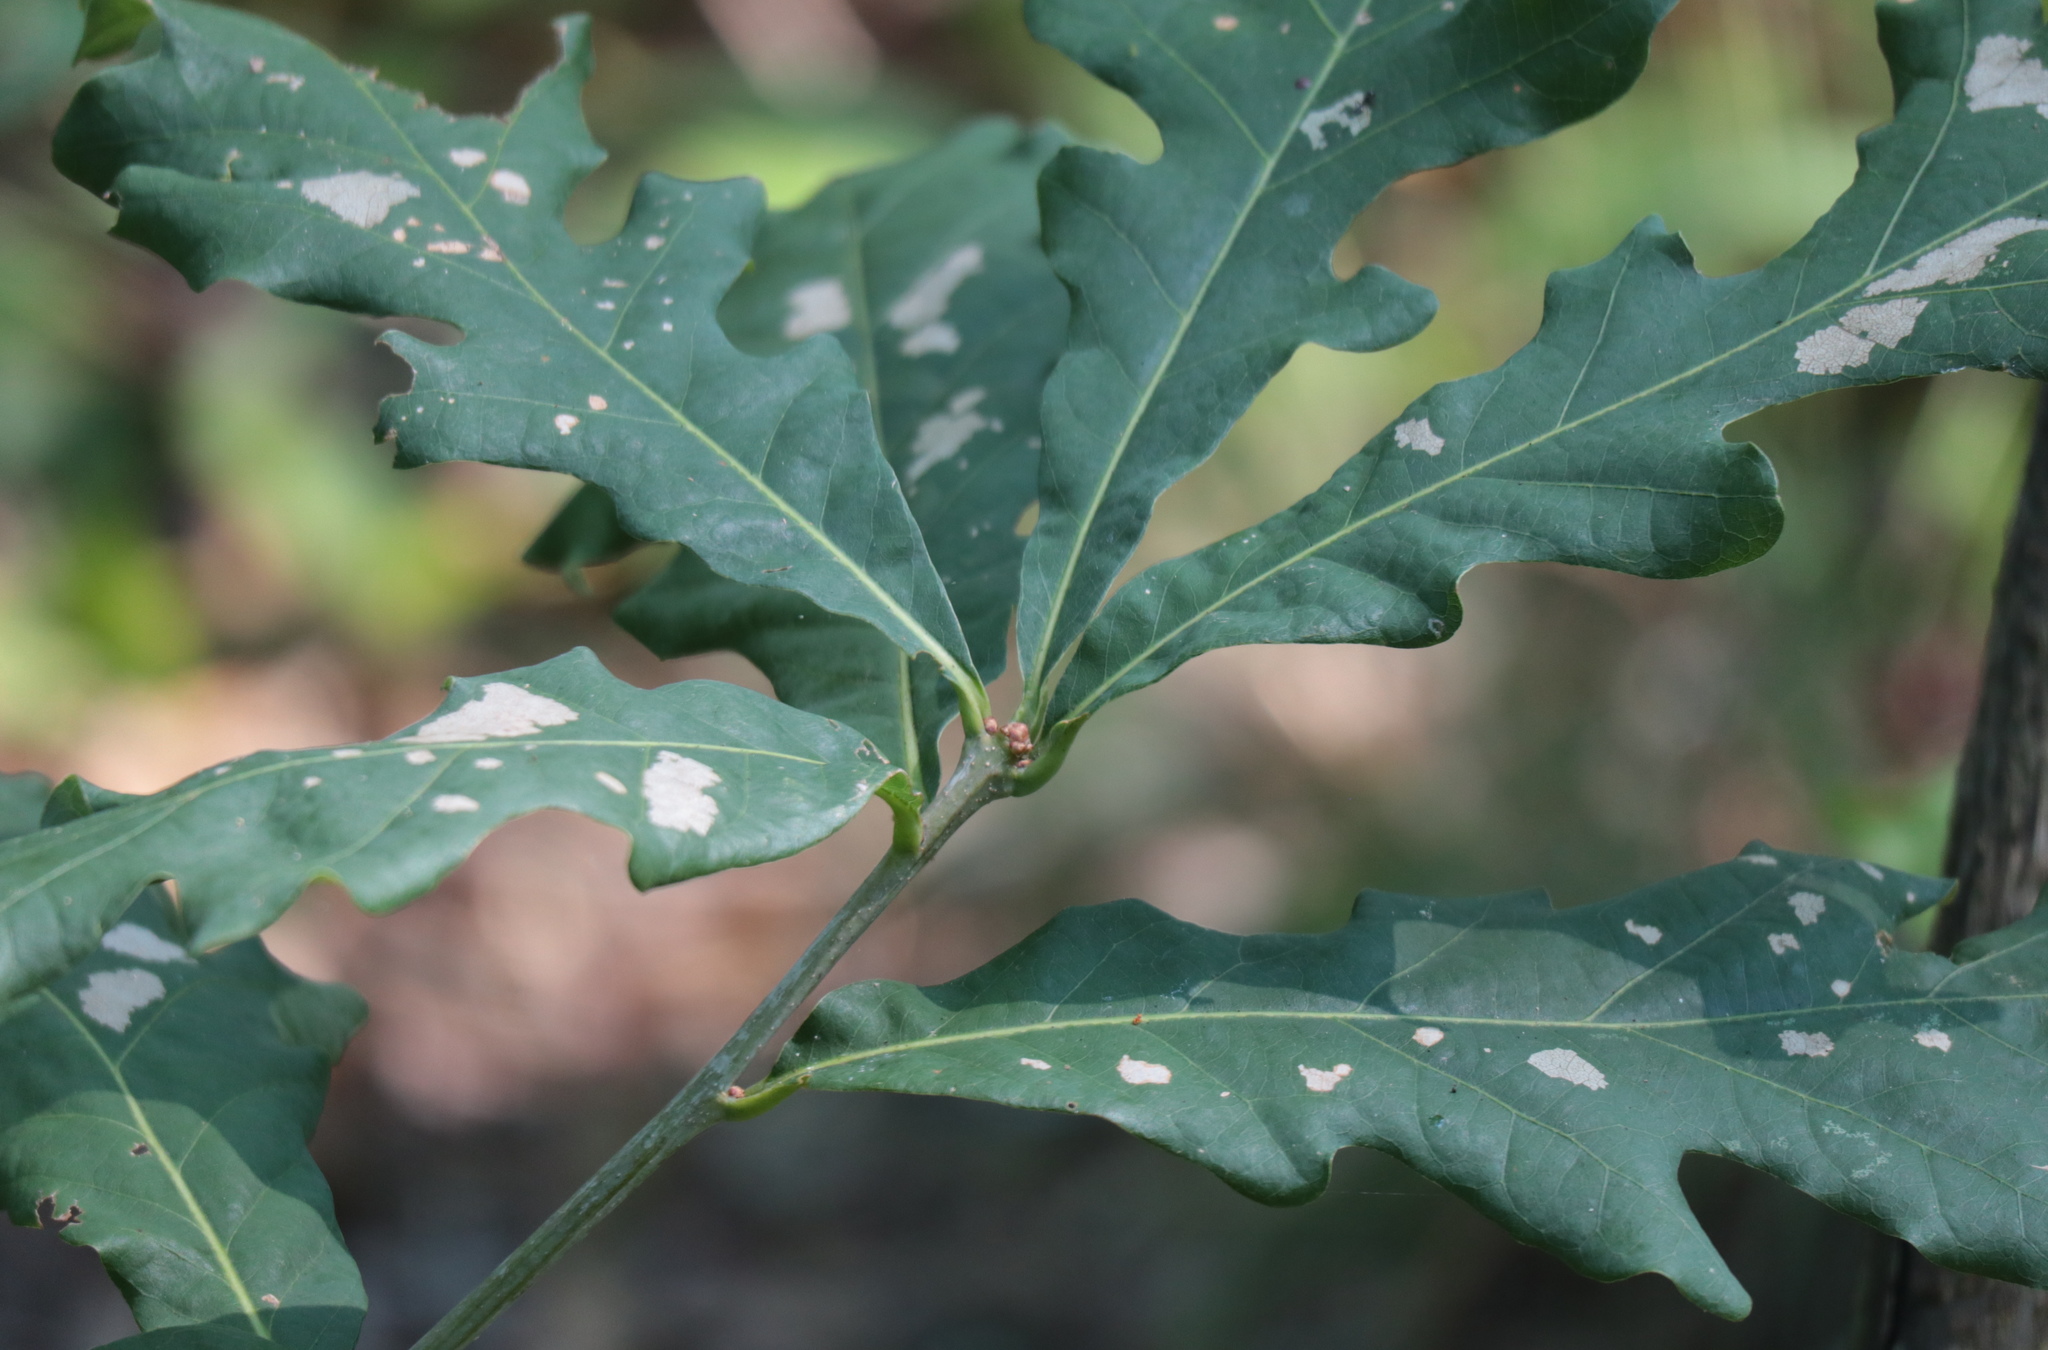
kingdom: Plantae
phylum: Tracheophyta
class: Magnoliopsida
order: Fagales
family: Fagaceae
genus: Quercus
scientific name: Quercus alba
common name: White oak
